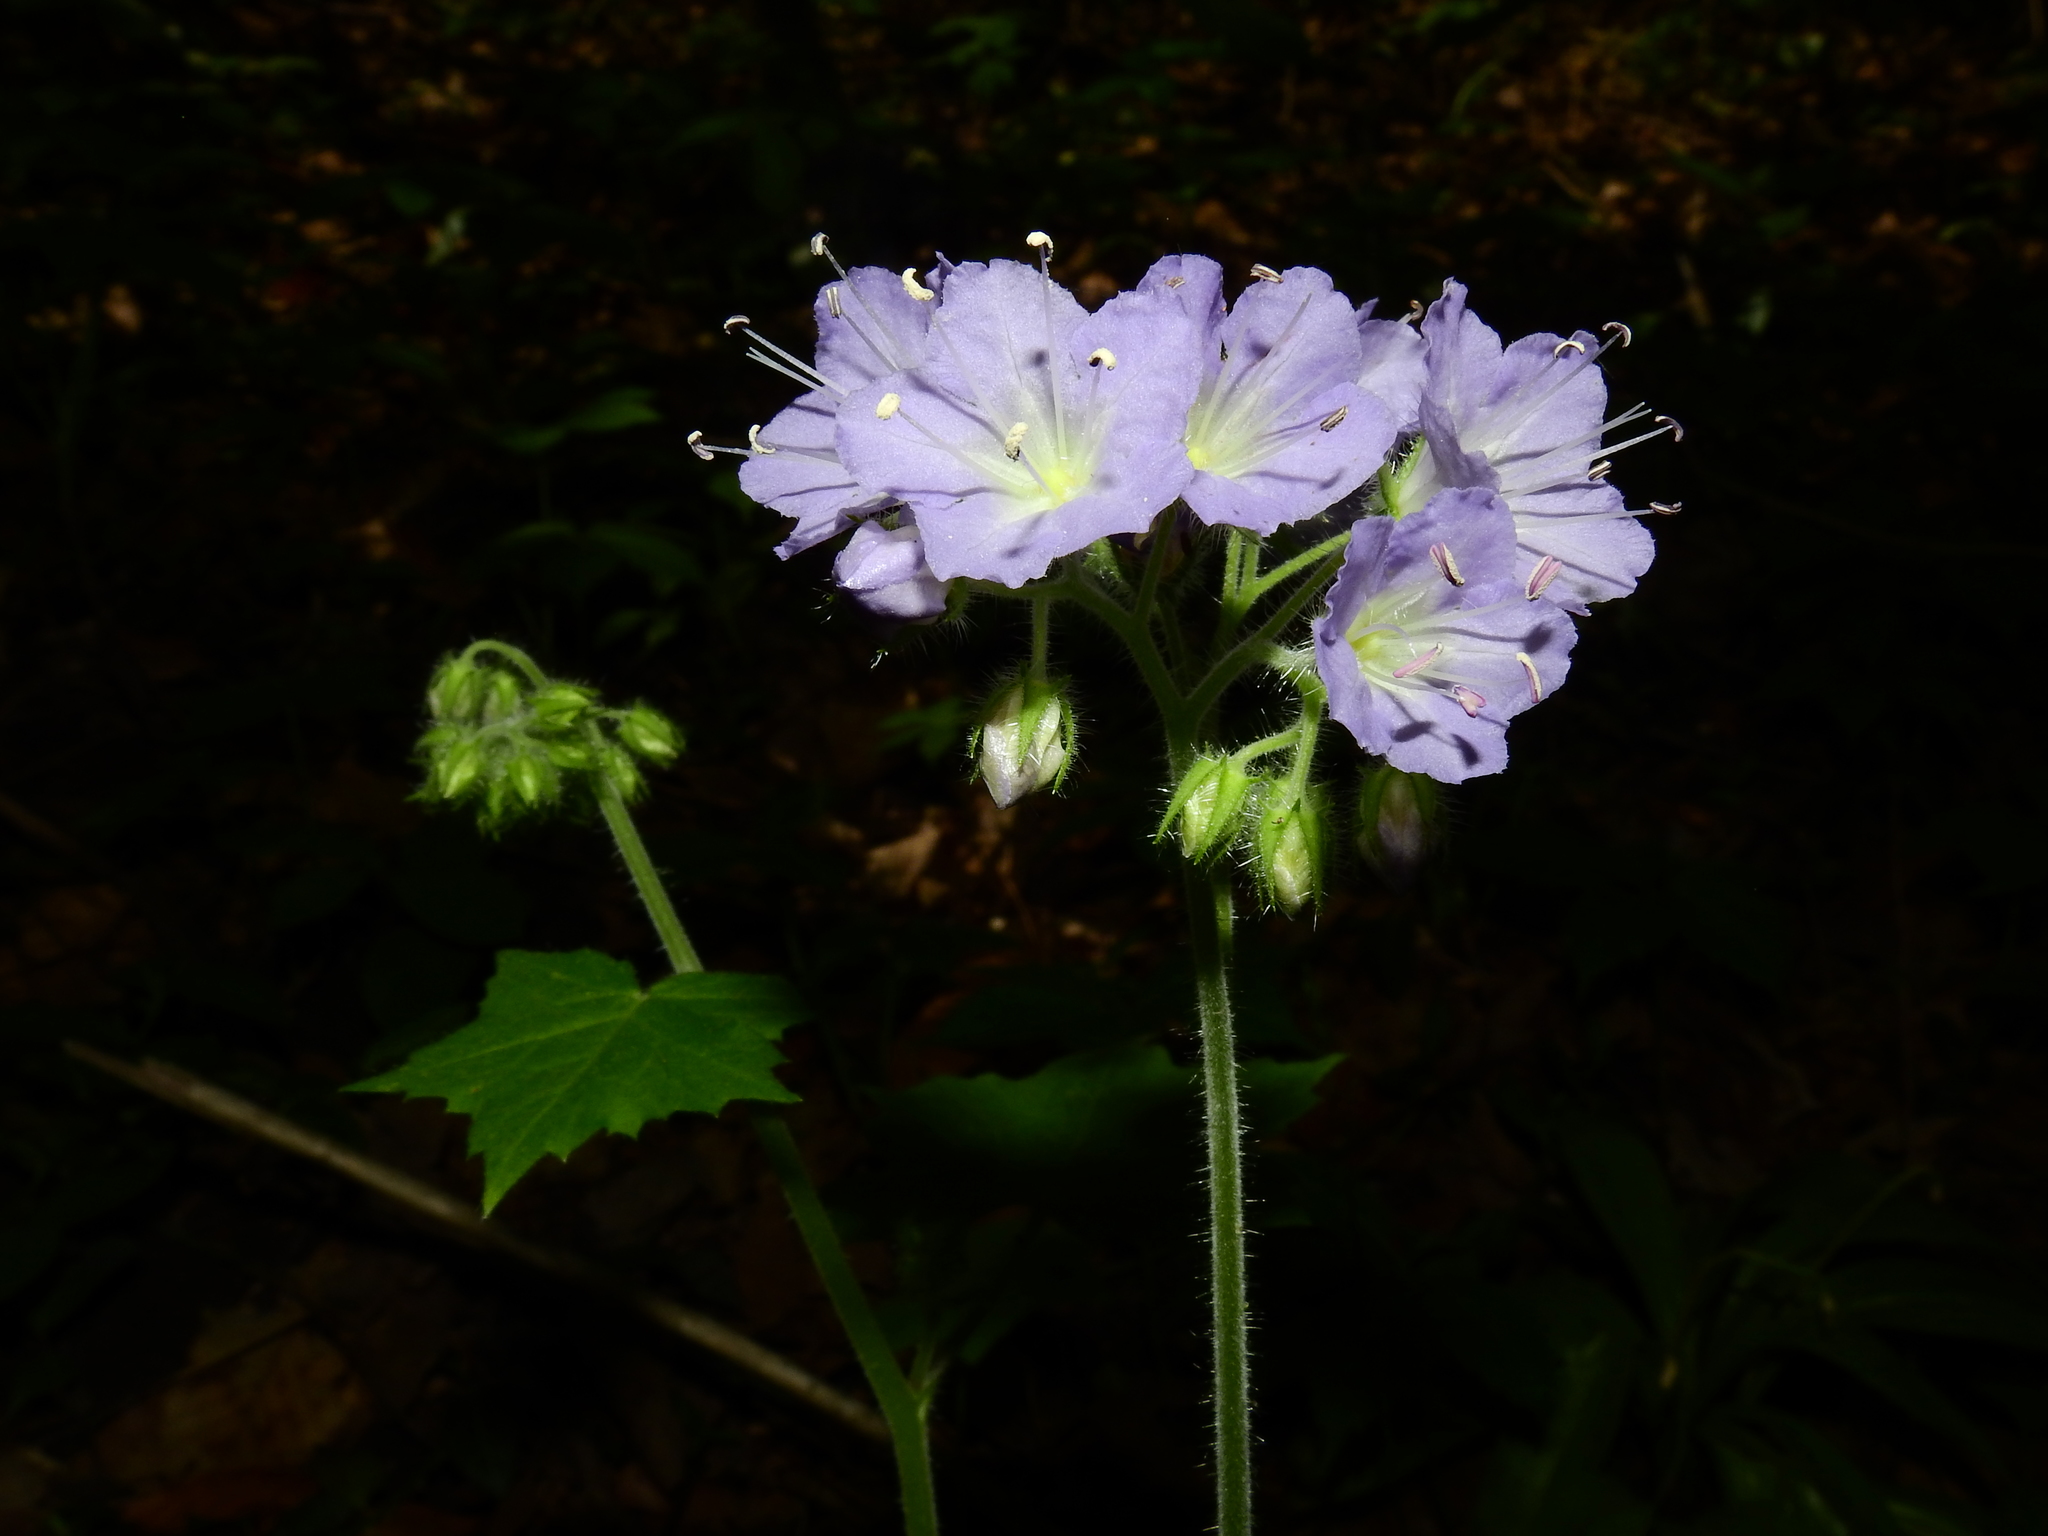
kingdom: Plantae
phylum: Tracheophyta
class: Magnoliopsida
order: Boraginales
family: Hydrophyllaceae
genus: Hydrophyllum
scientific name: Hydrophyllum appendiculatum
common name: Appendaged waterleaf
